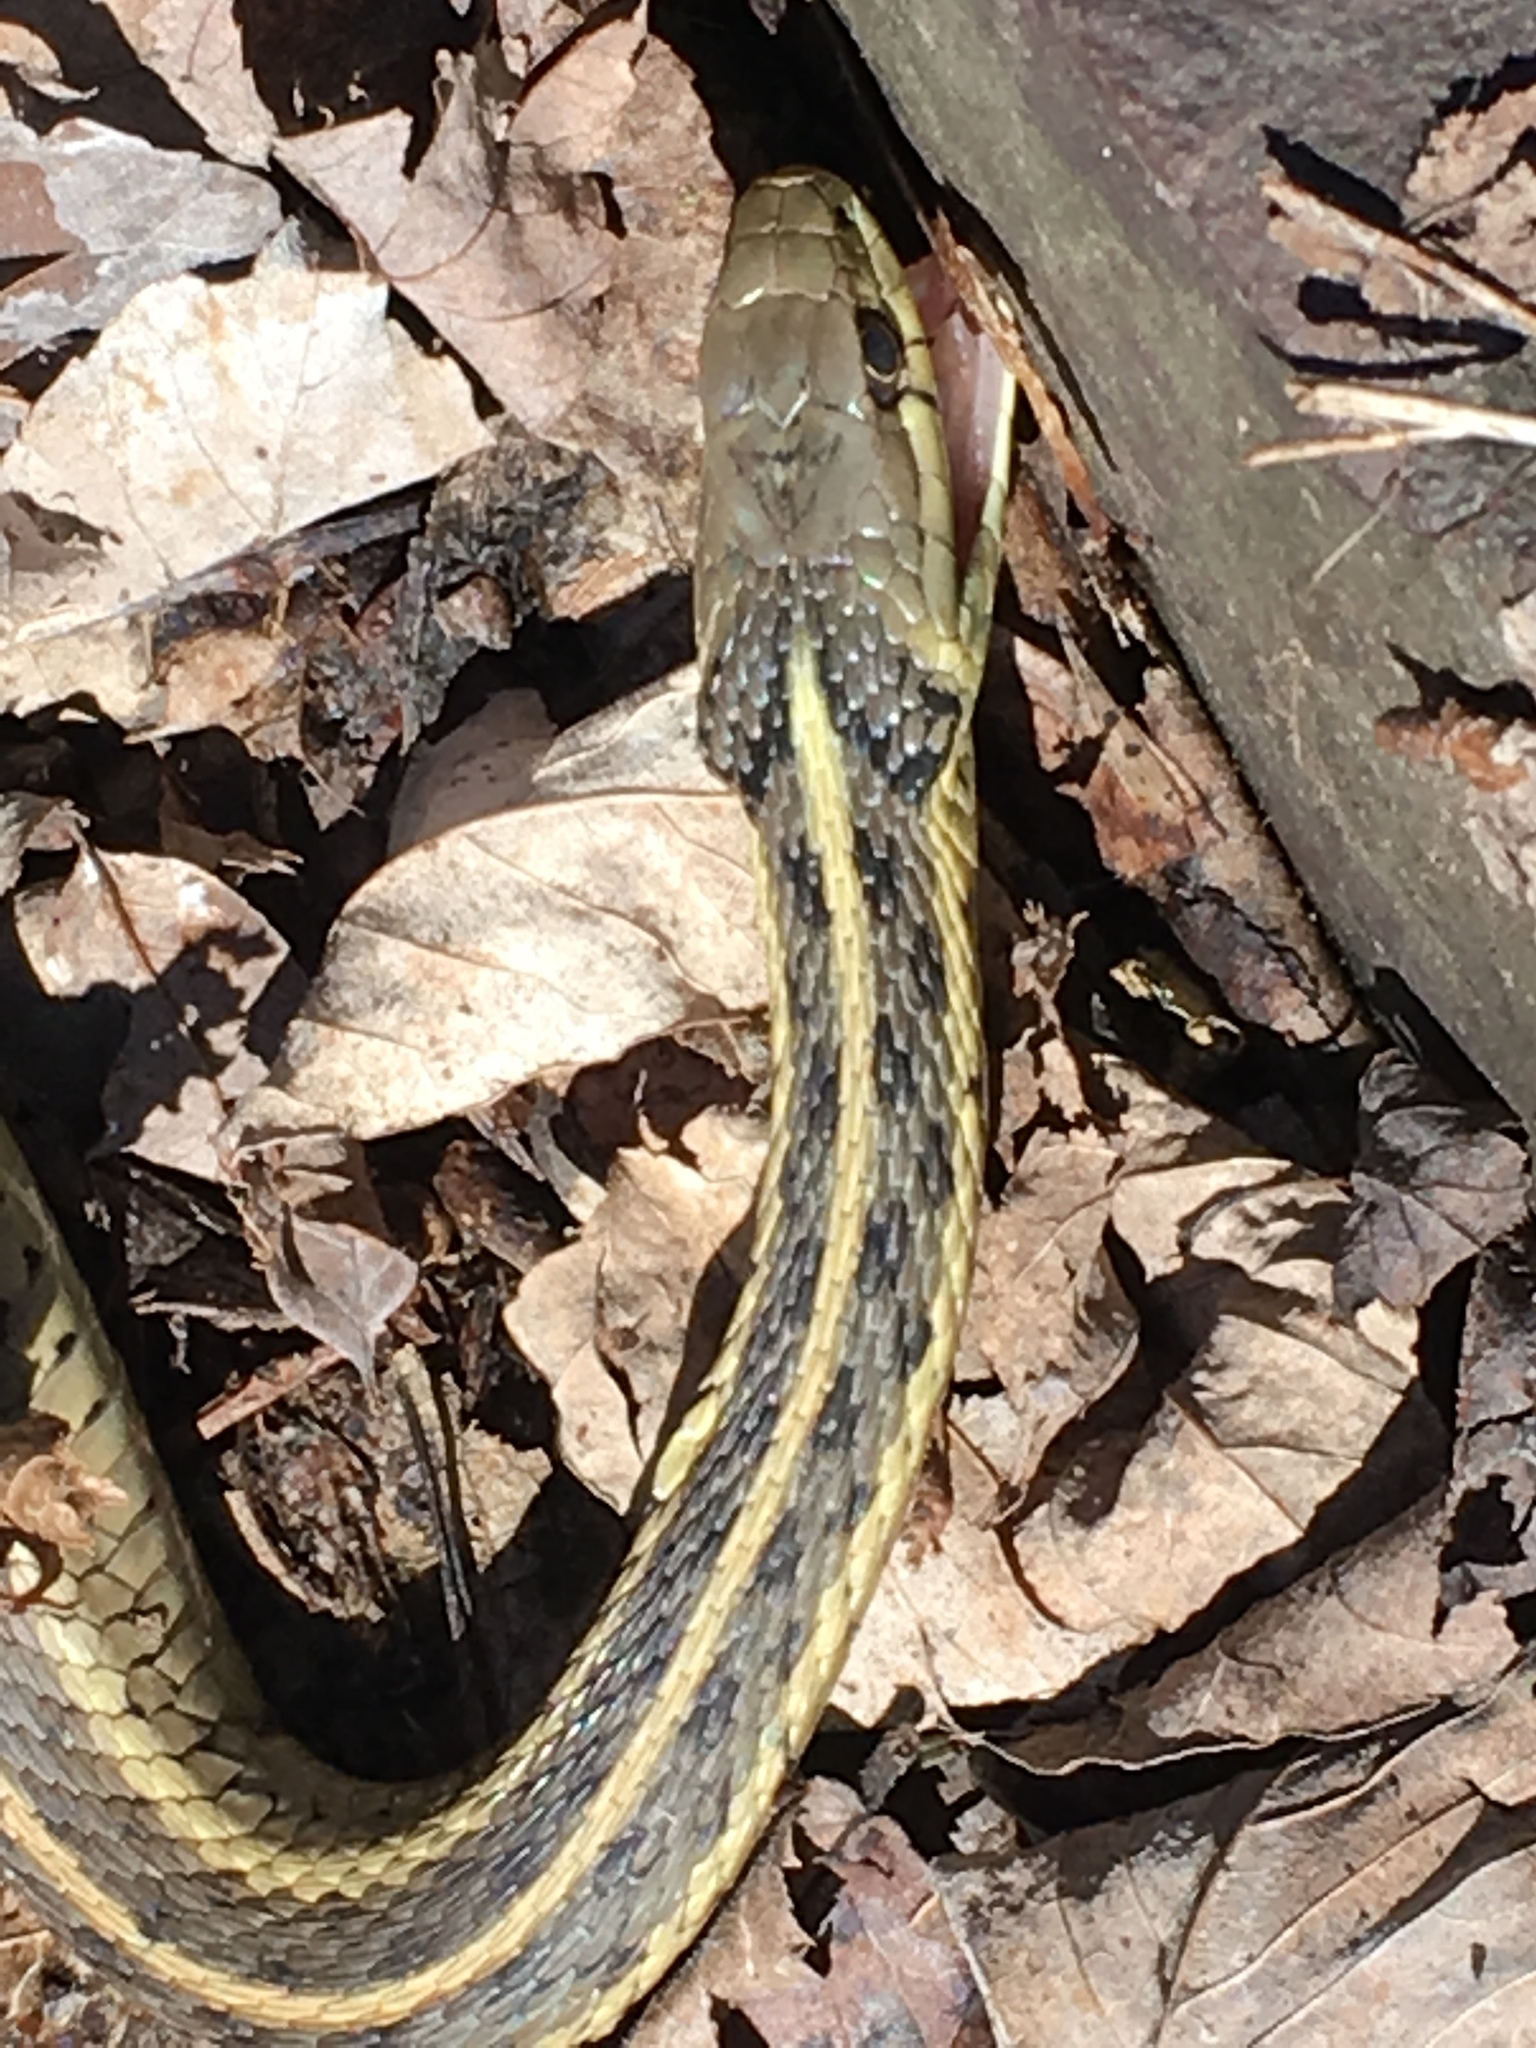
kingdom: Animalia
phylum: Chordata
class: Squamata
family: Colubridae
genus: Thamnophis
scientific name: Thamnophis sirtalis
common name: Common garter snake
